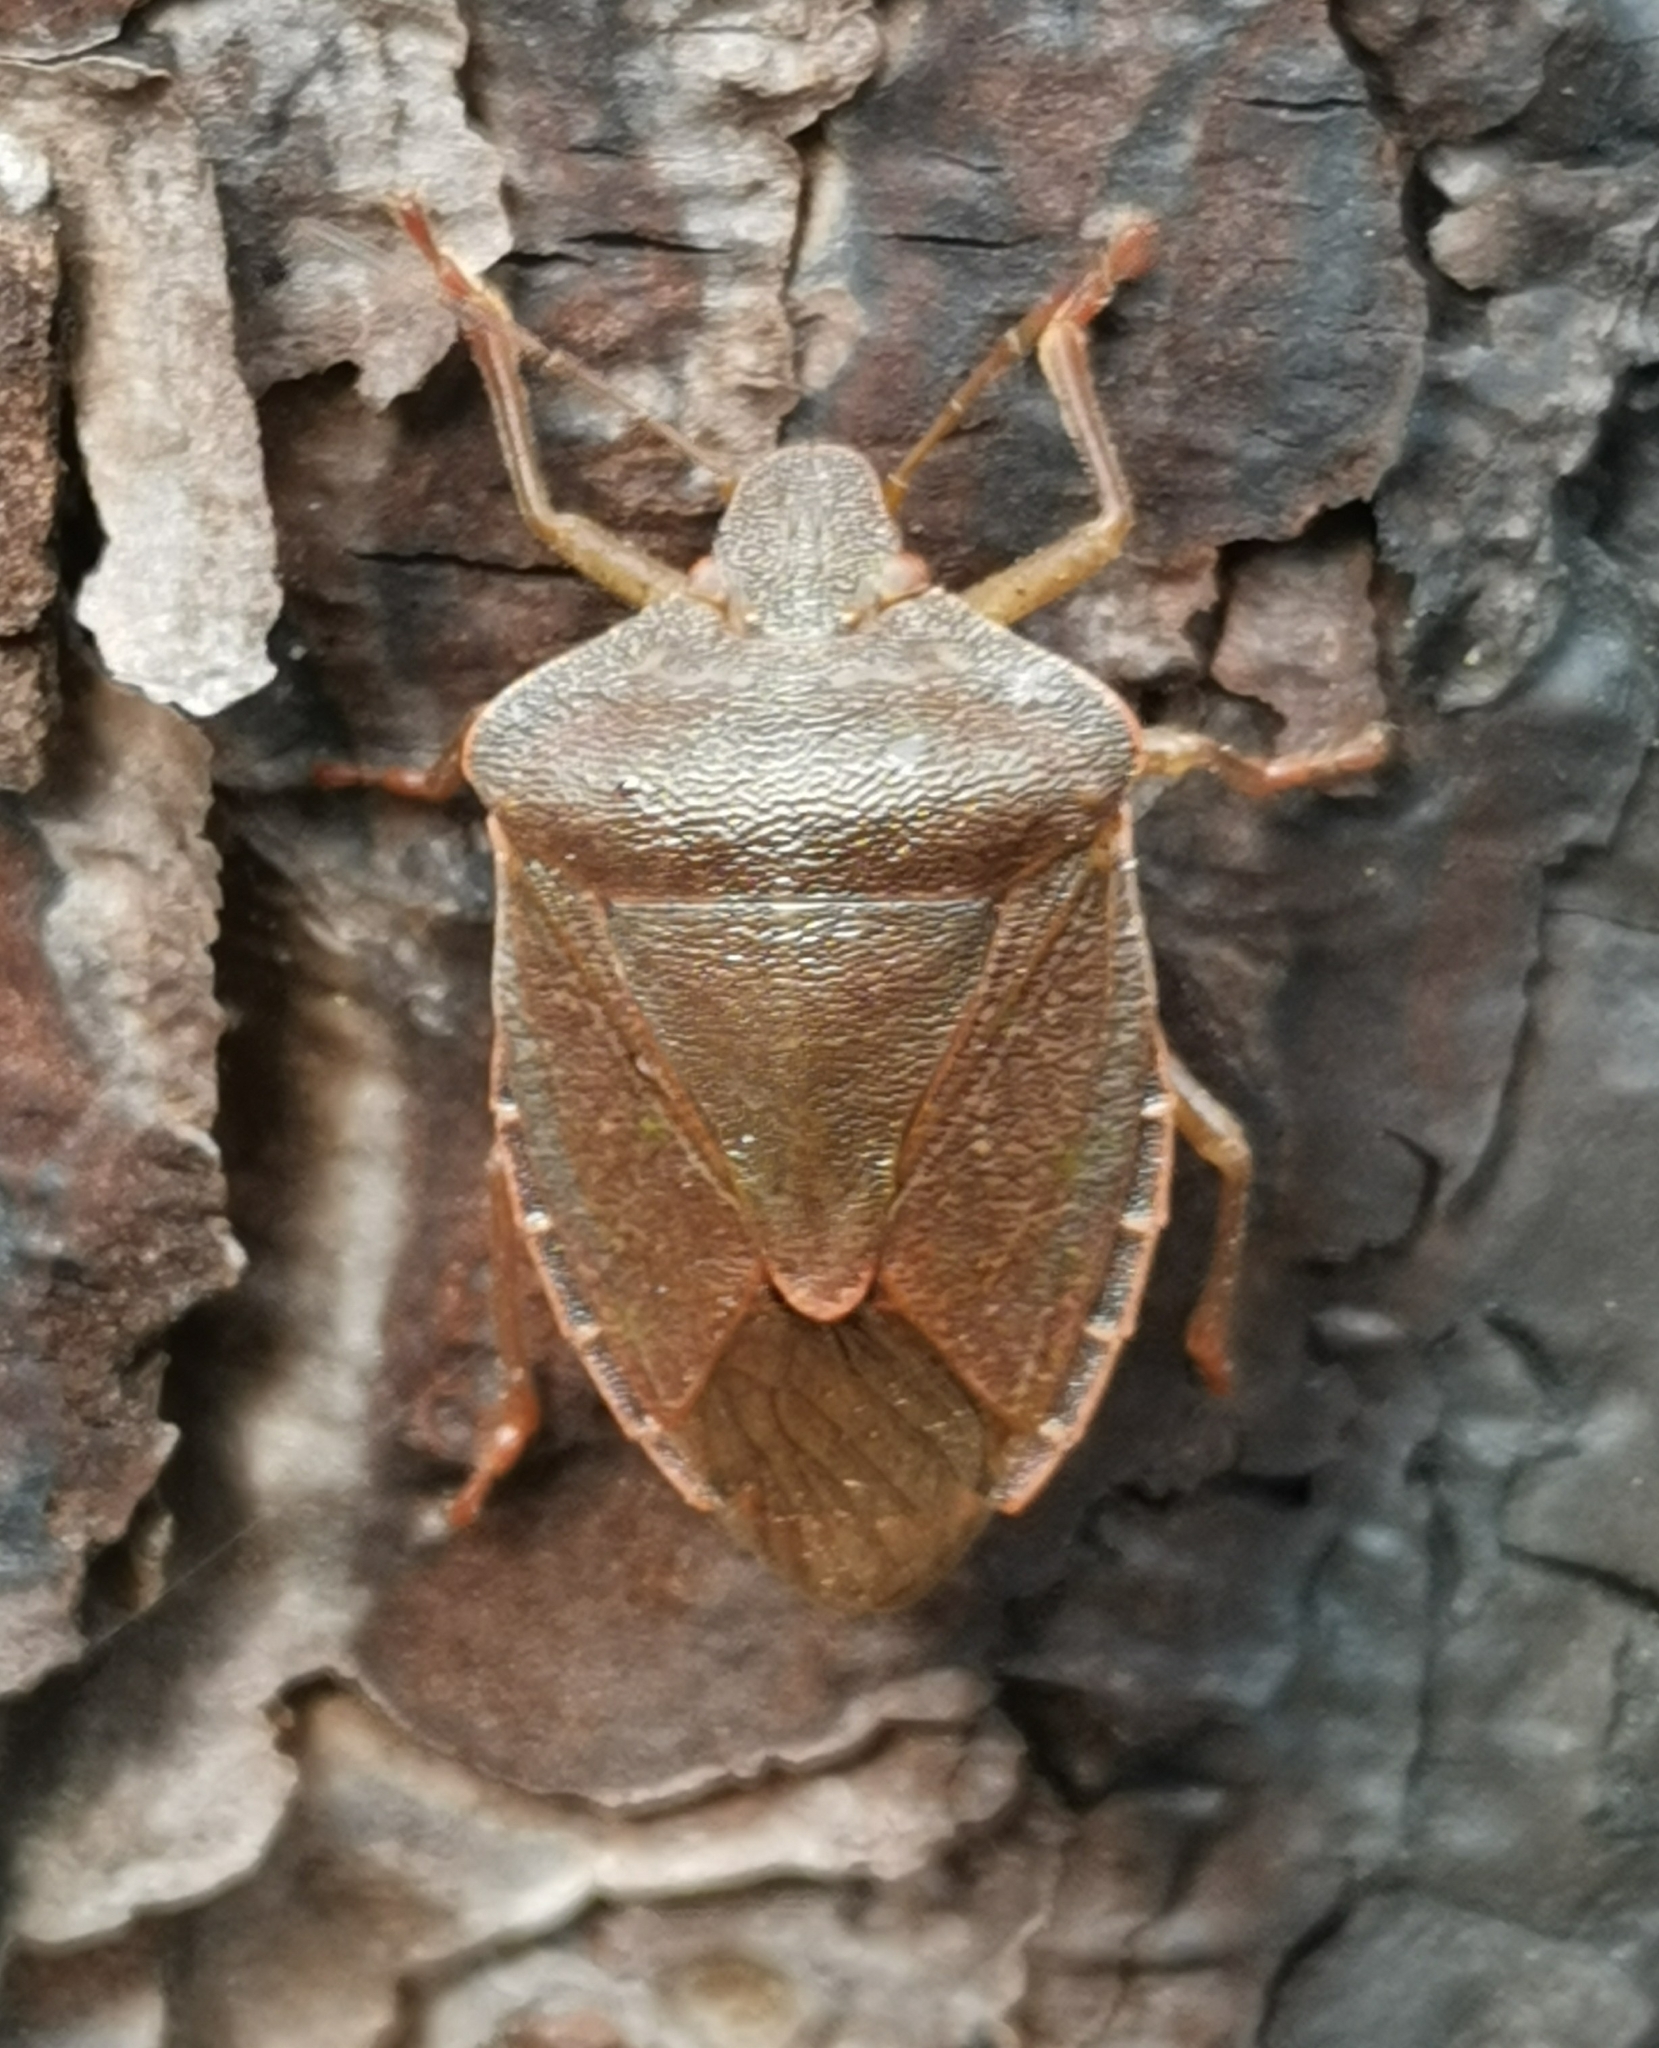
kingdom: Animalia
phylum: Arthropoda
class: Insecta
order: Hemiptera
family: Pentatomidae
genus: Palomena
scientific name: Palomena prasina
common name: Green shieldbug
